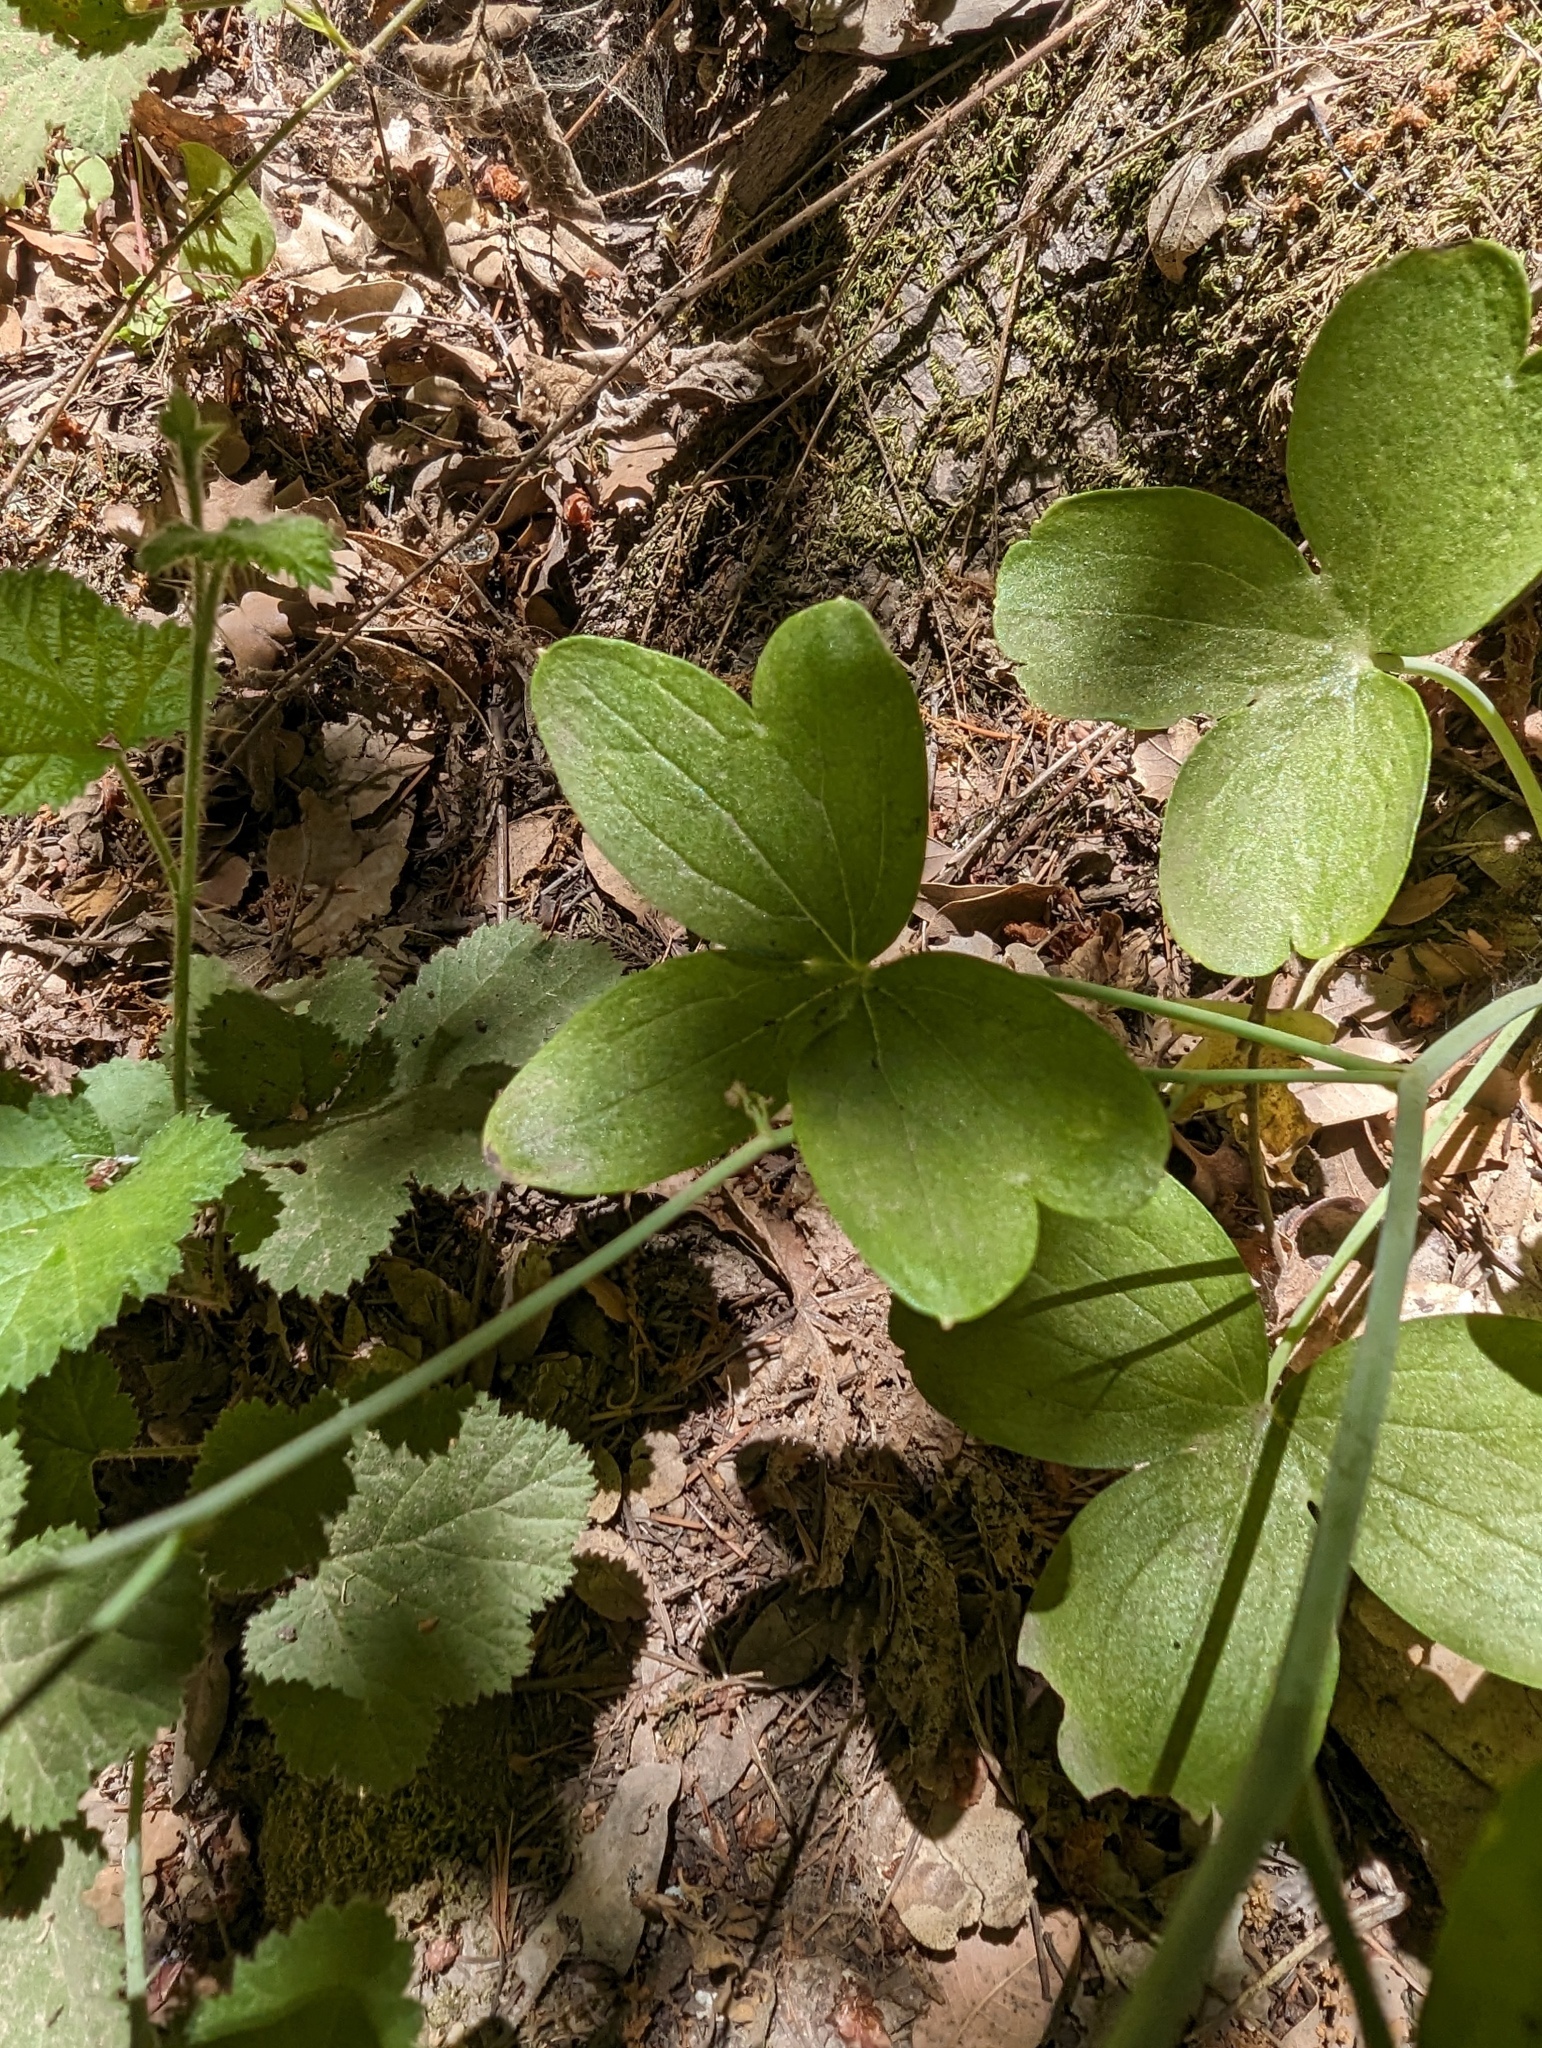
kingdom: Plantae
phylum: Tracheophyta
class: Magnoliopsida
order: Ranunculales
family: Ranunculaceae
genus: Delphinium
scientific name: Delphinium nudicaule
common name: Red larkspur
